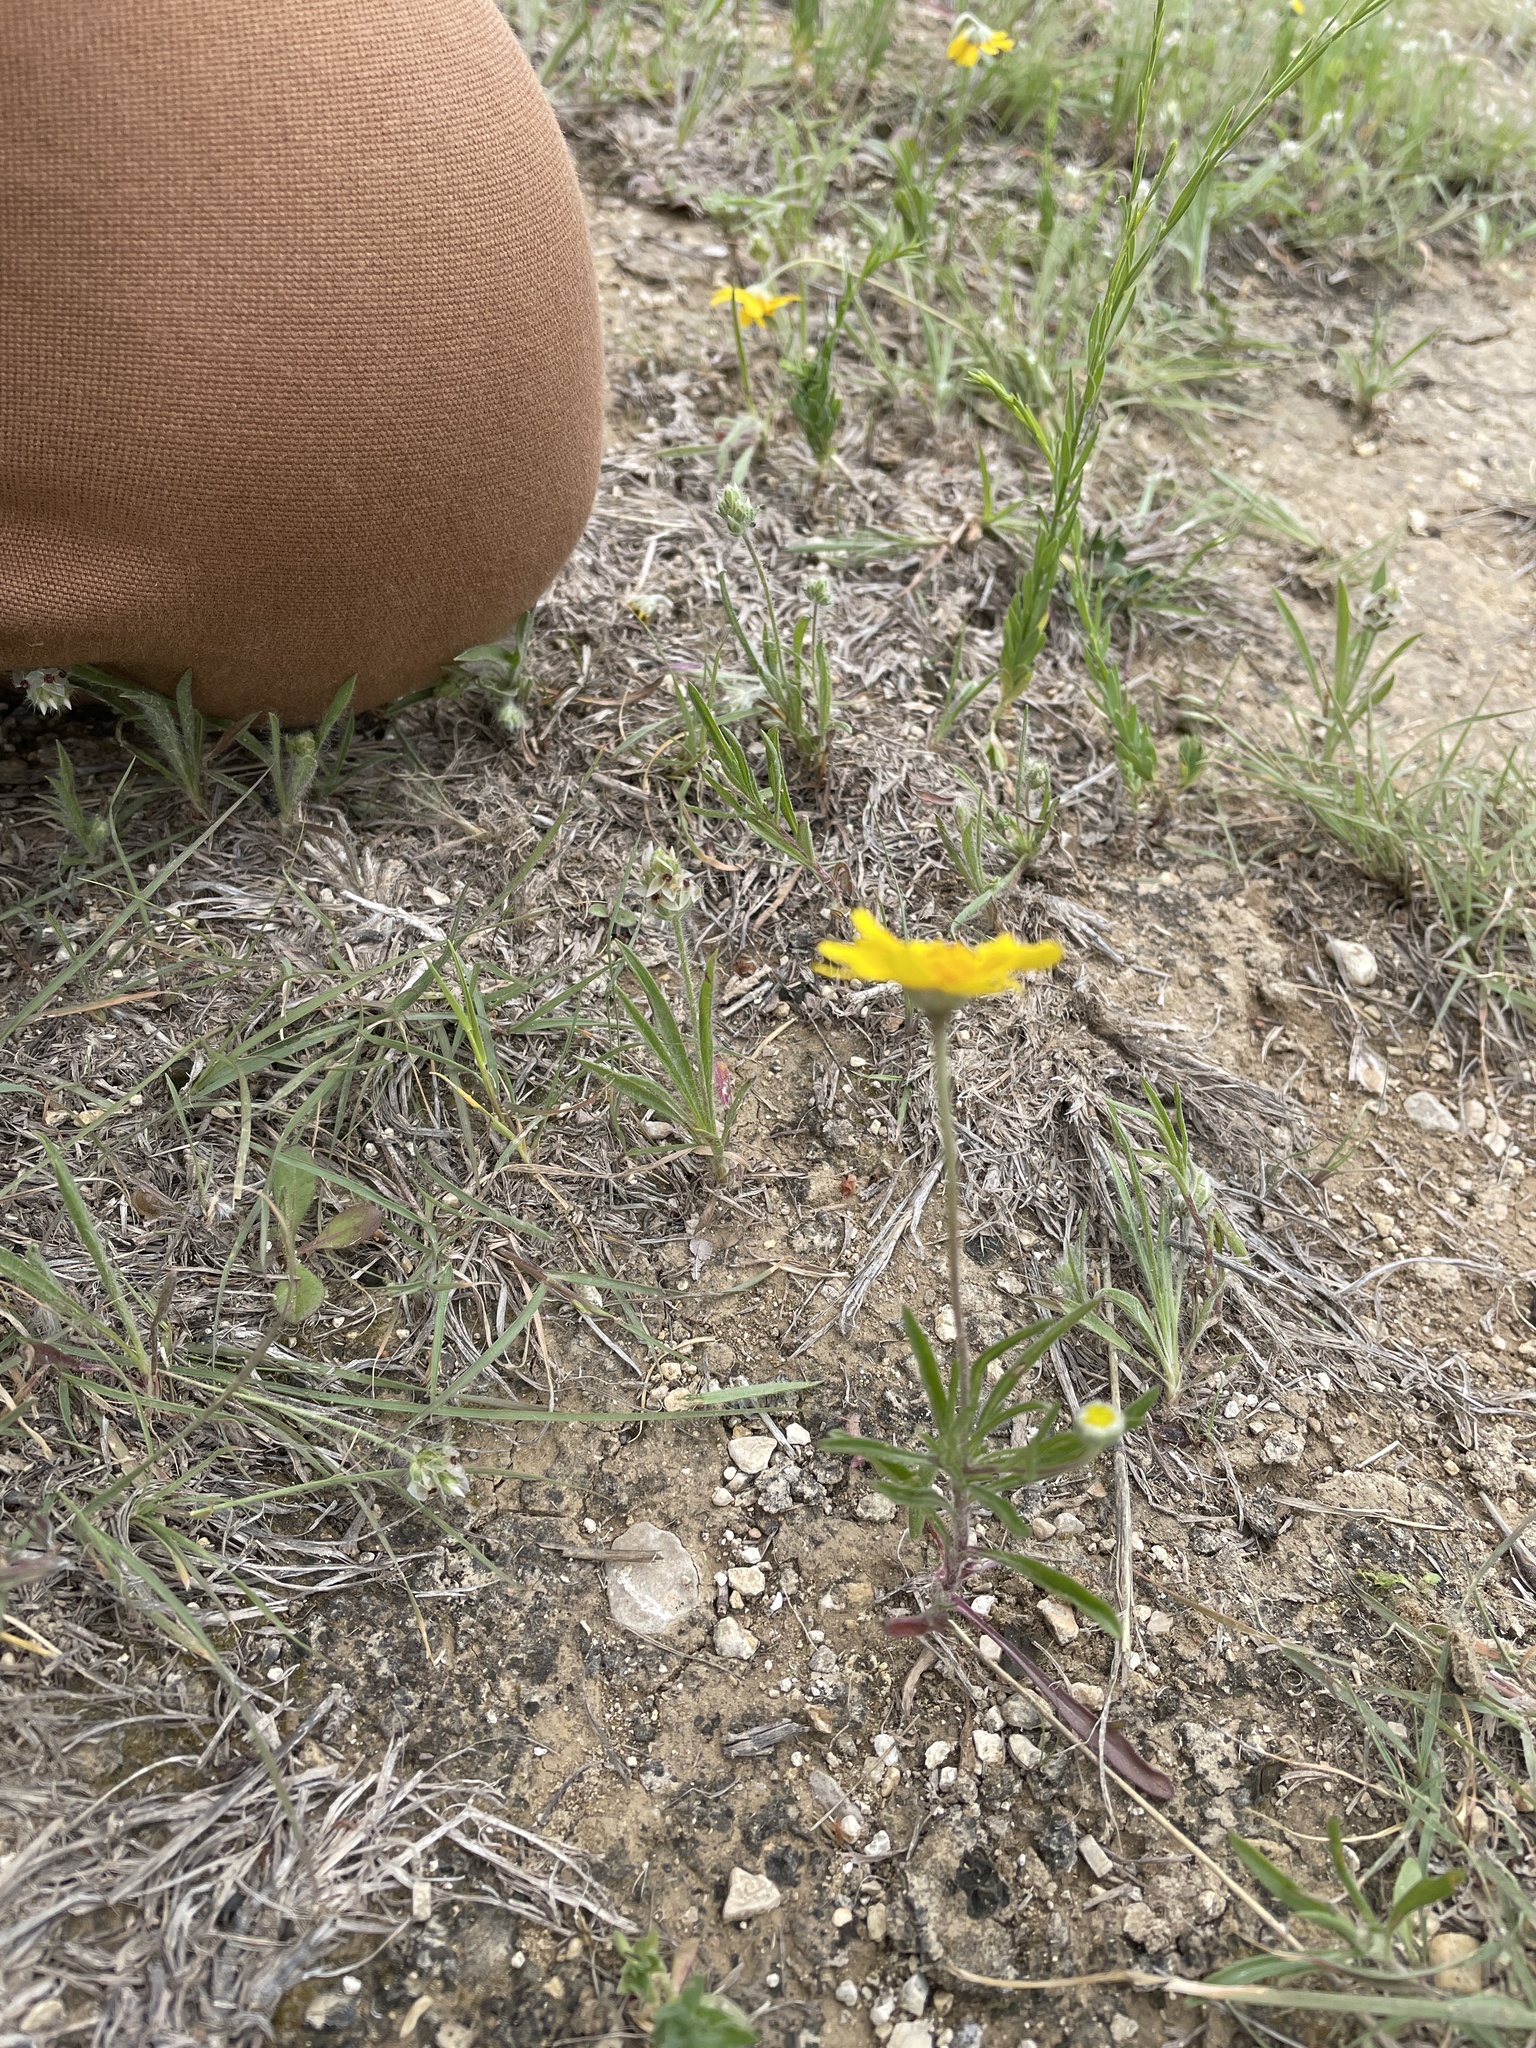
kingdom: Plantae
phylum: Tracheophyta
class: Magnoliopsida
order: Asterales
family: Asteraceae
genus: Tetraneuris
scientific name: Tetraneuris linearifolia
